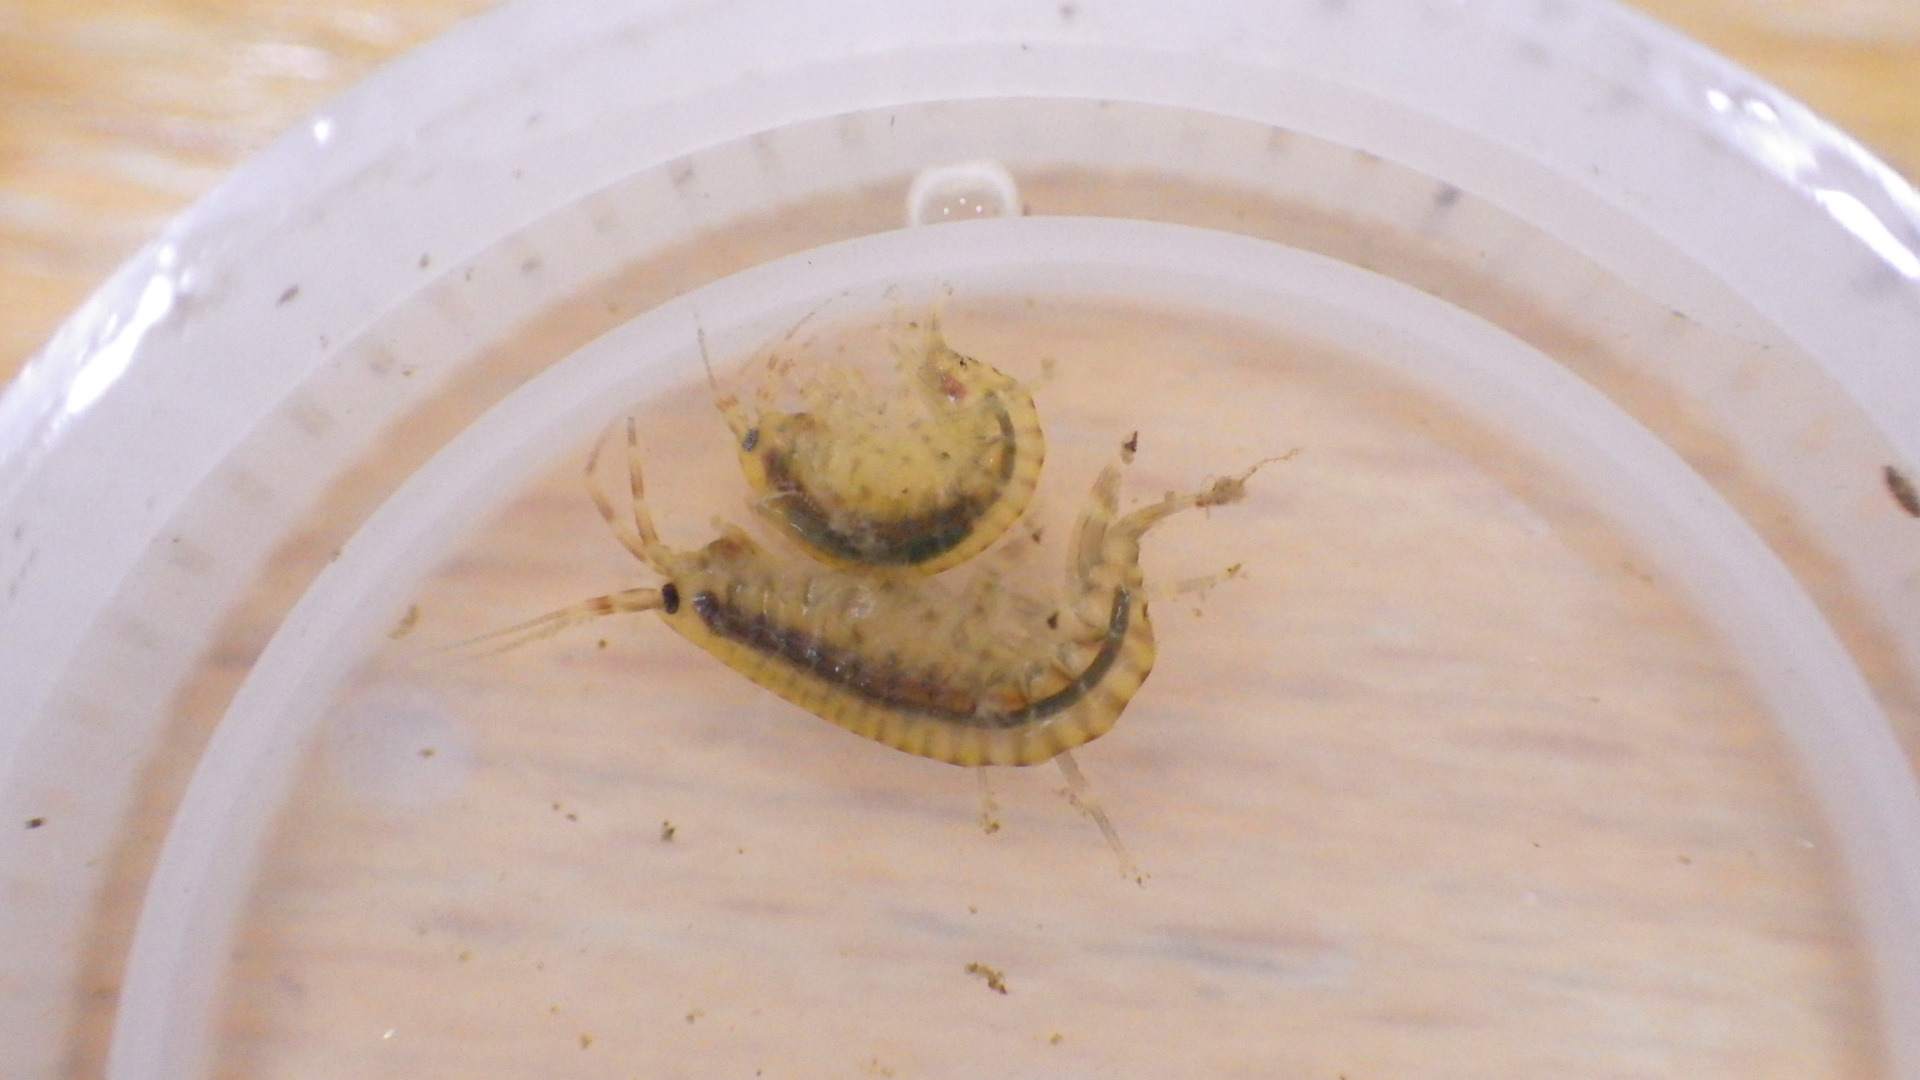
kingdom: Animalia
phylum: Arthropoda
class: Malacostraca
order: Amphipoda
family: Gammaridae
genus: Gammarus
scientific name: Gammarus fasciatus
